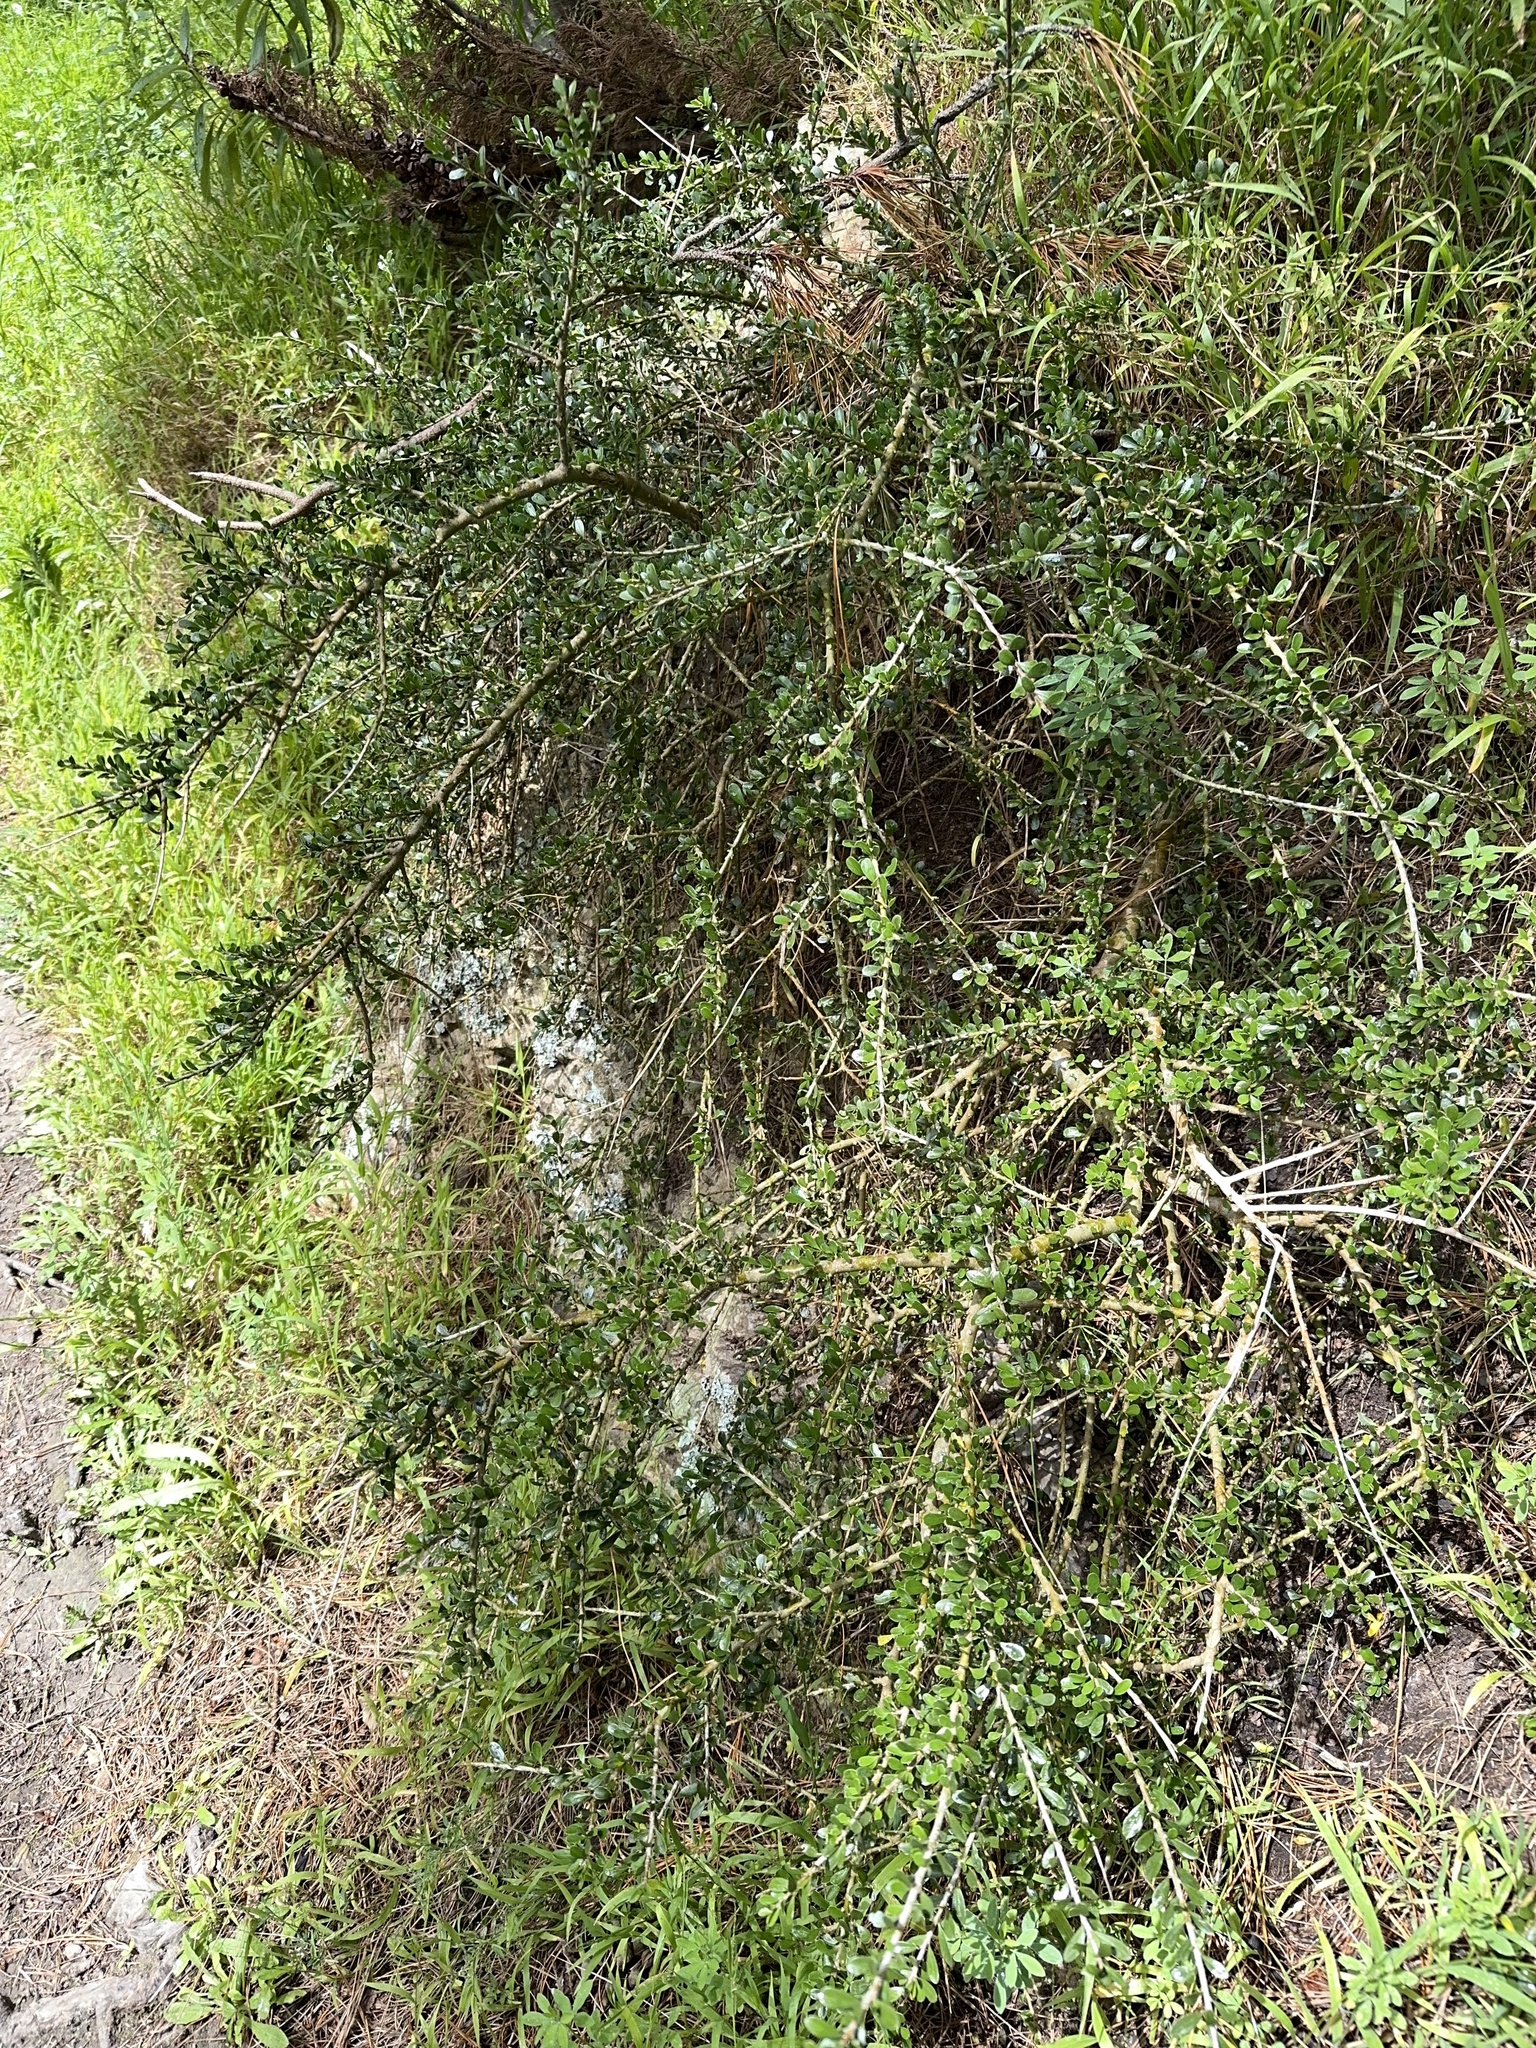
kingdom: Plantae
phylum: Tracheophyta
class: Magnoliopsida
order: Malpighiales
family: Violaceae
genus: Melicytus
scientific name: Melicytus crassifolius
